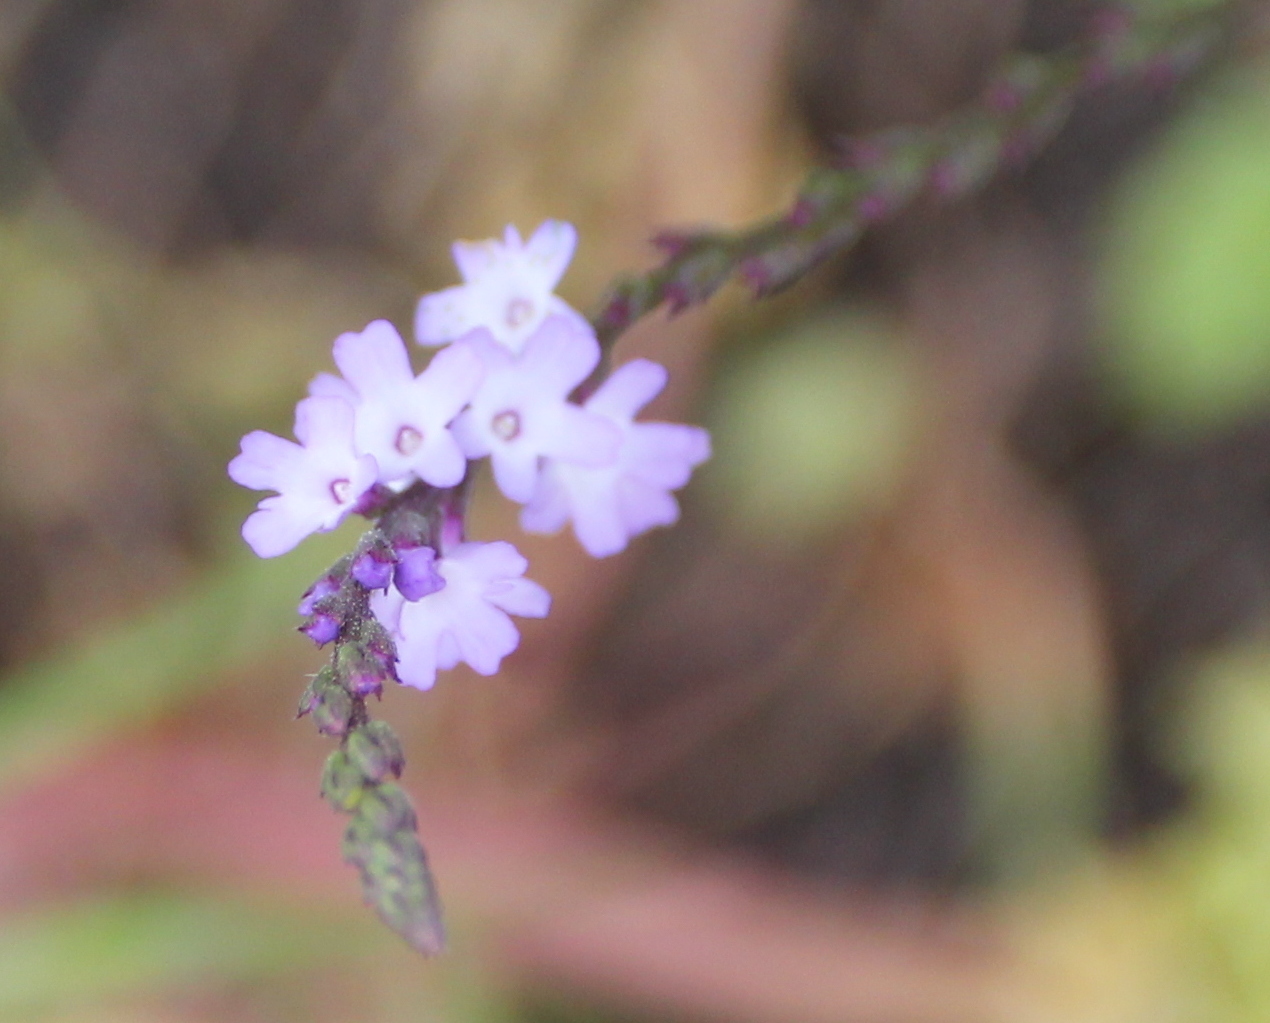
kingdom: Plantae
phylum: Tracheophyta
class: Magnoliopsida
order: Lamiales
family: Verbenaceae
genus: Verbena
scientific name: Verbena menthifolia
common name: Mint-leaf vervain
